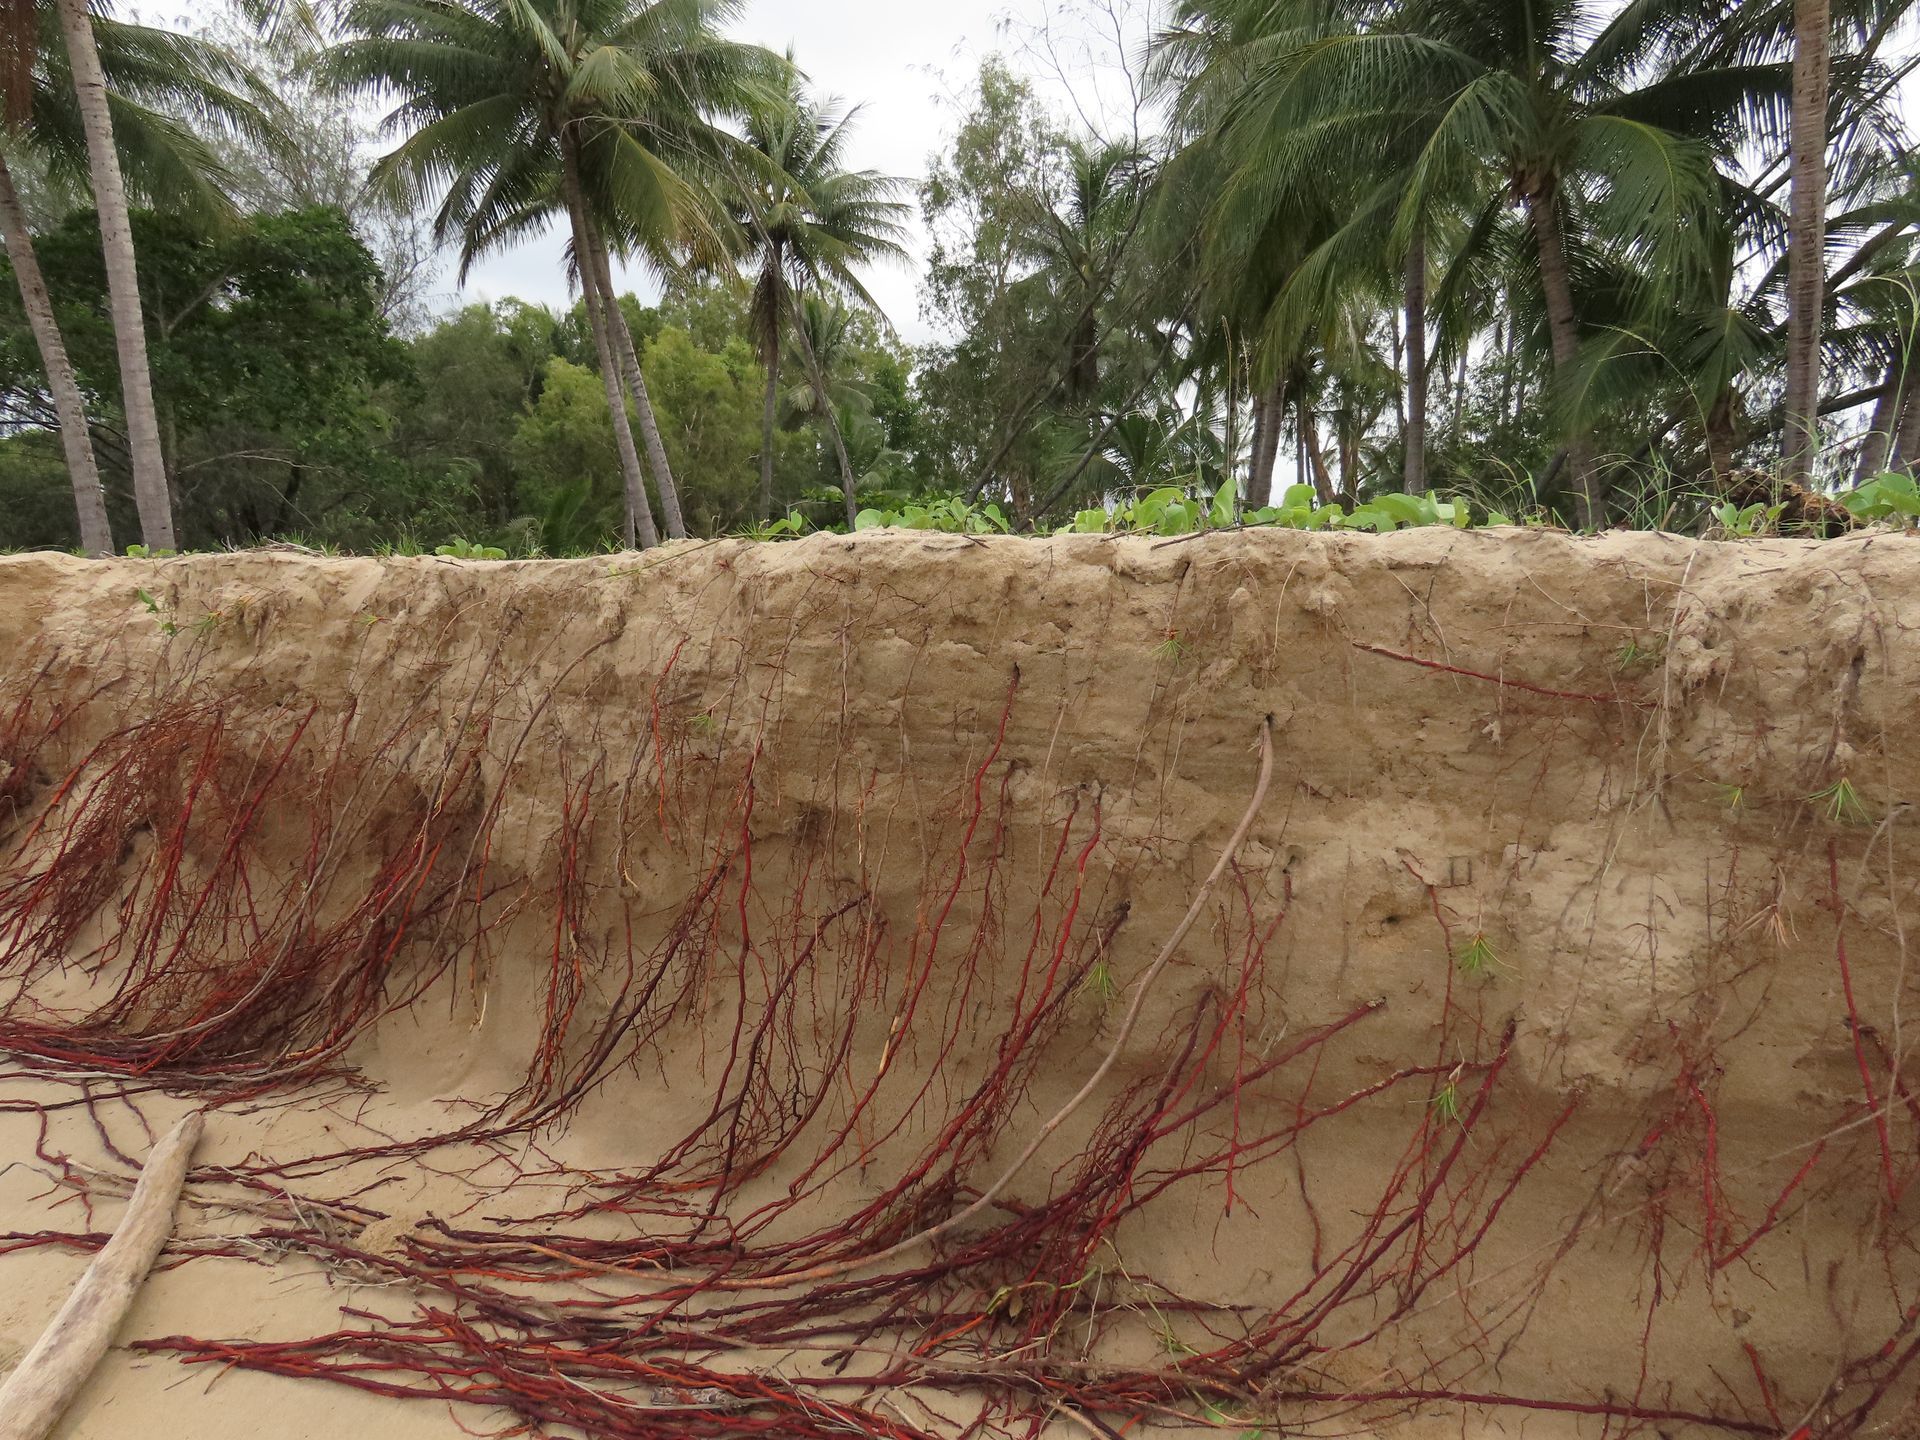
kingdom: Plantae
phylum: Tracheophyta
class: Liliopsida
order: Arecales
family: Arecaceae
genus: Cocos
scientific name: Cocos nucifera
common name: Coconut palm
